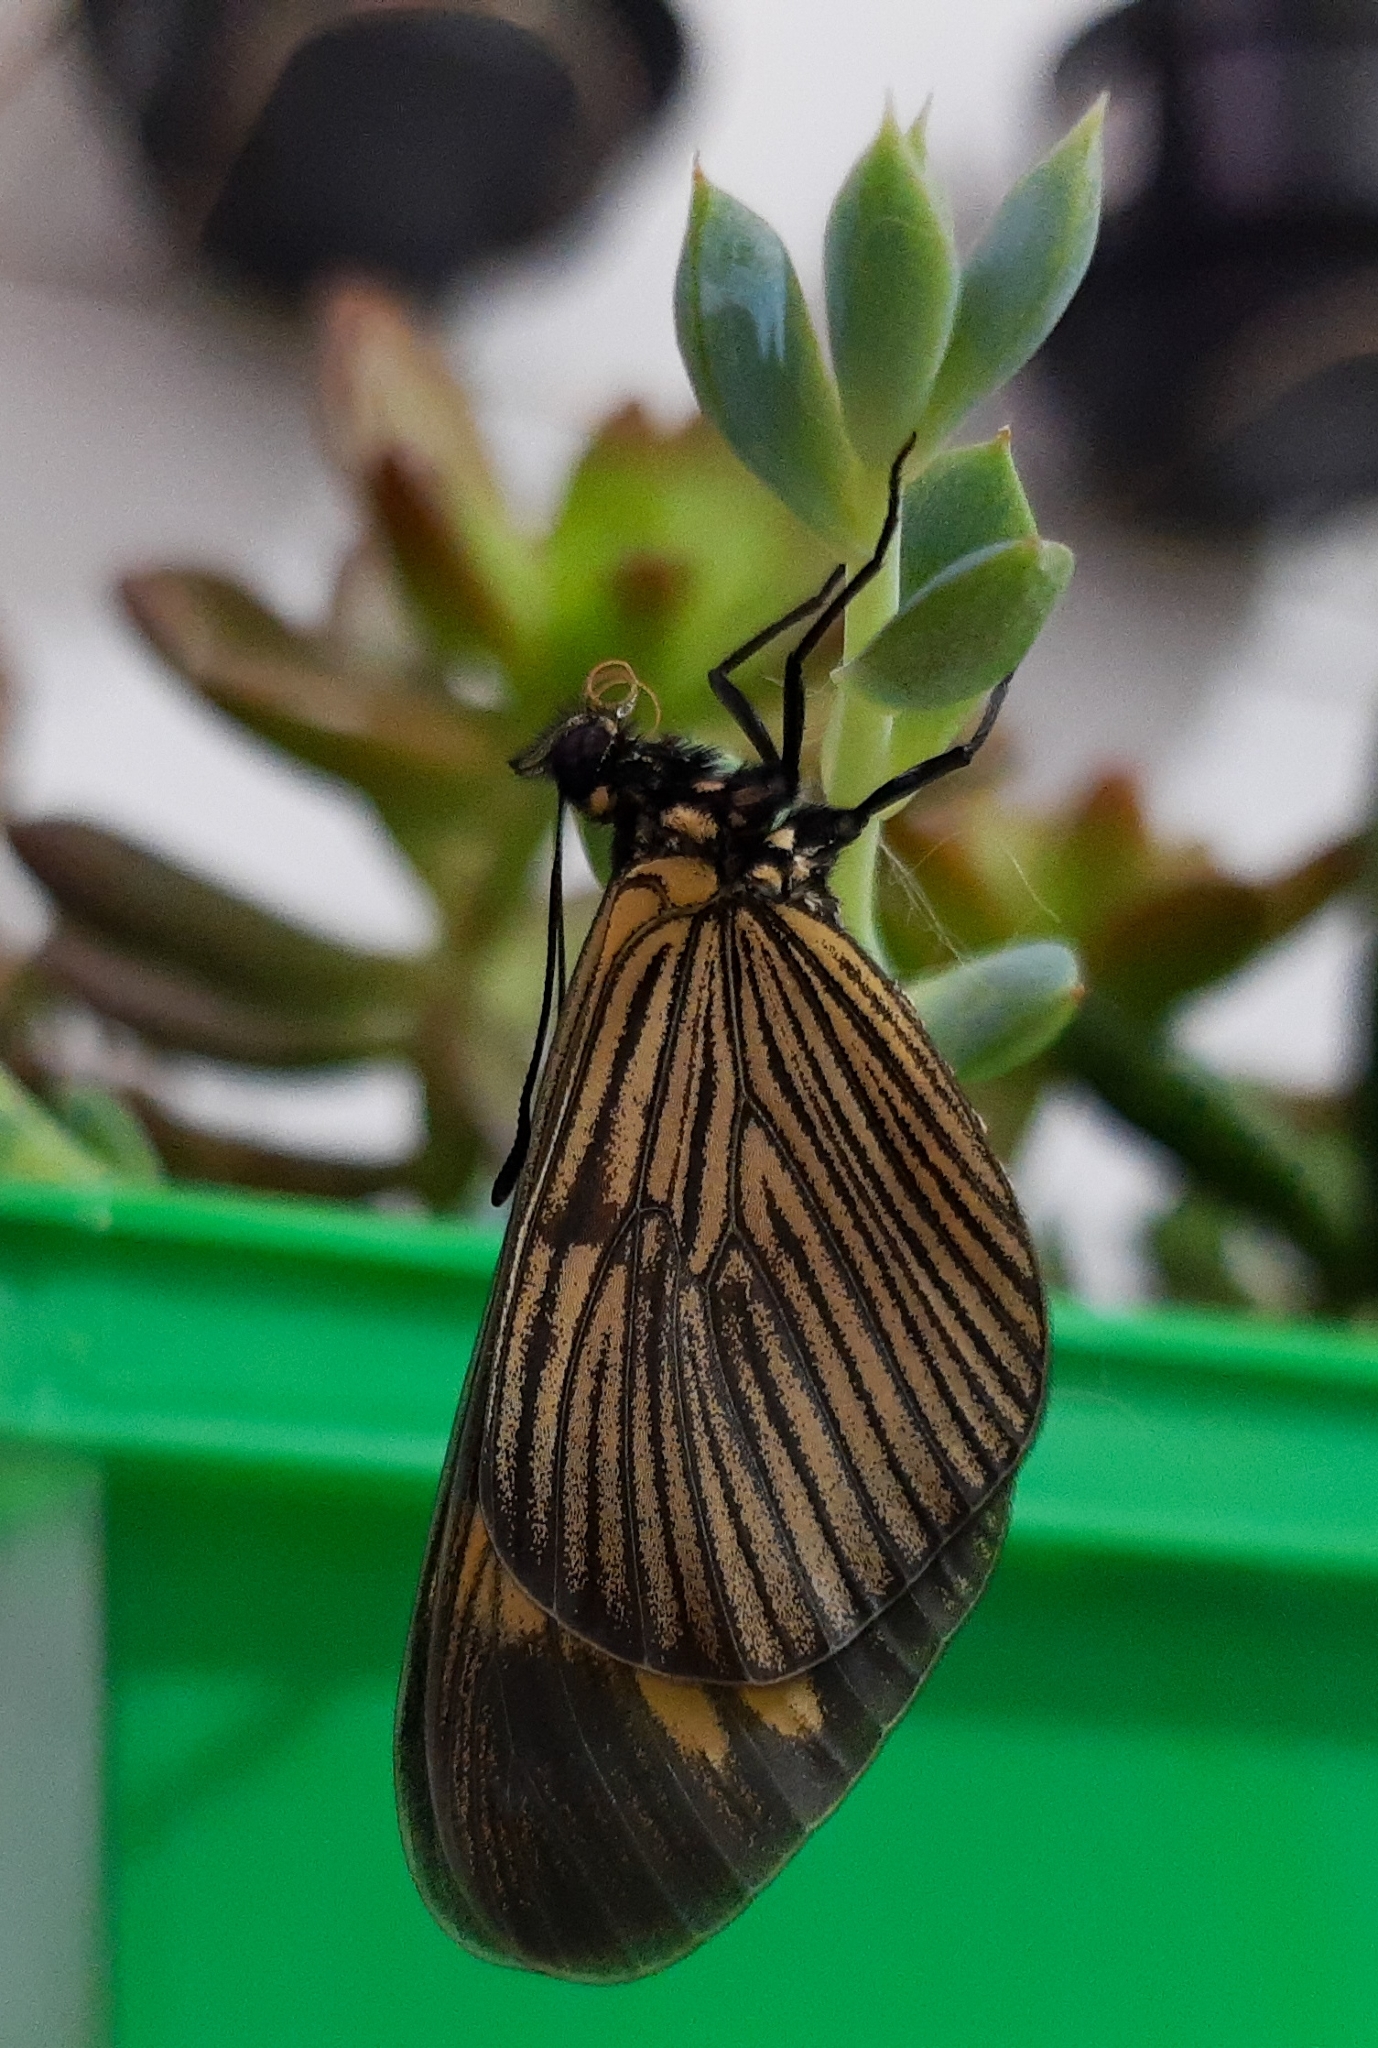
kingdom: Animalia
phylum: Arthropoda
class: Insecta
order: Lepidoptera
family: Nymphalidae
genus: Actinote
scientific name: Actinote melanisans
